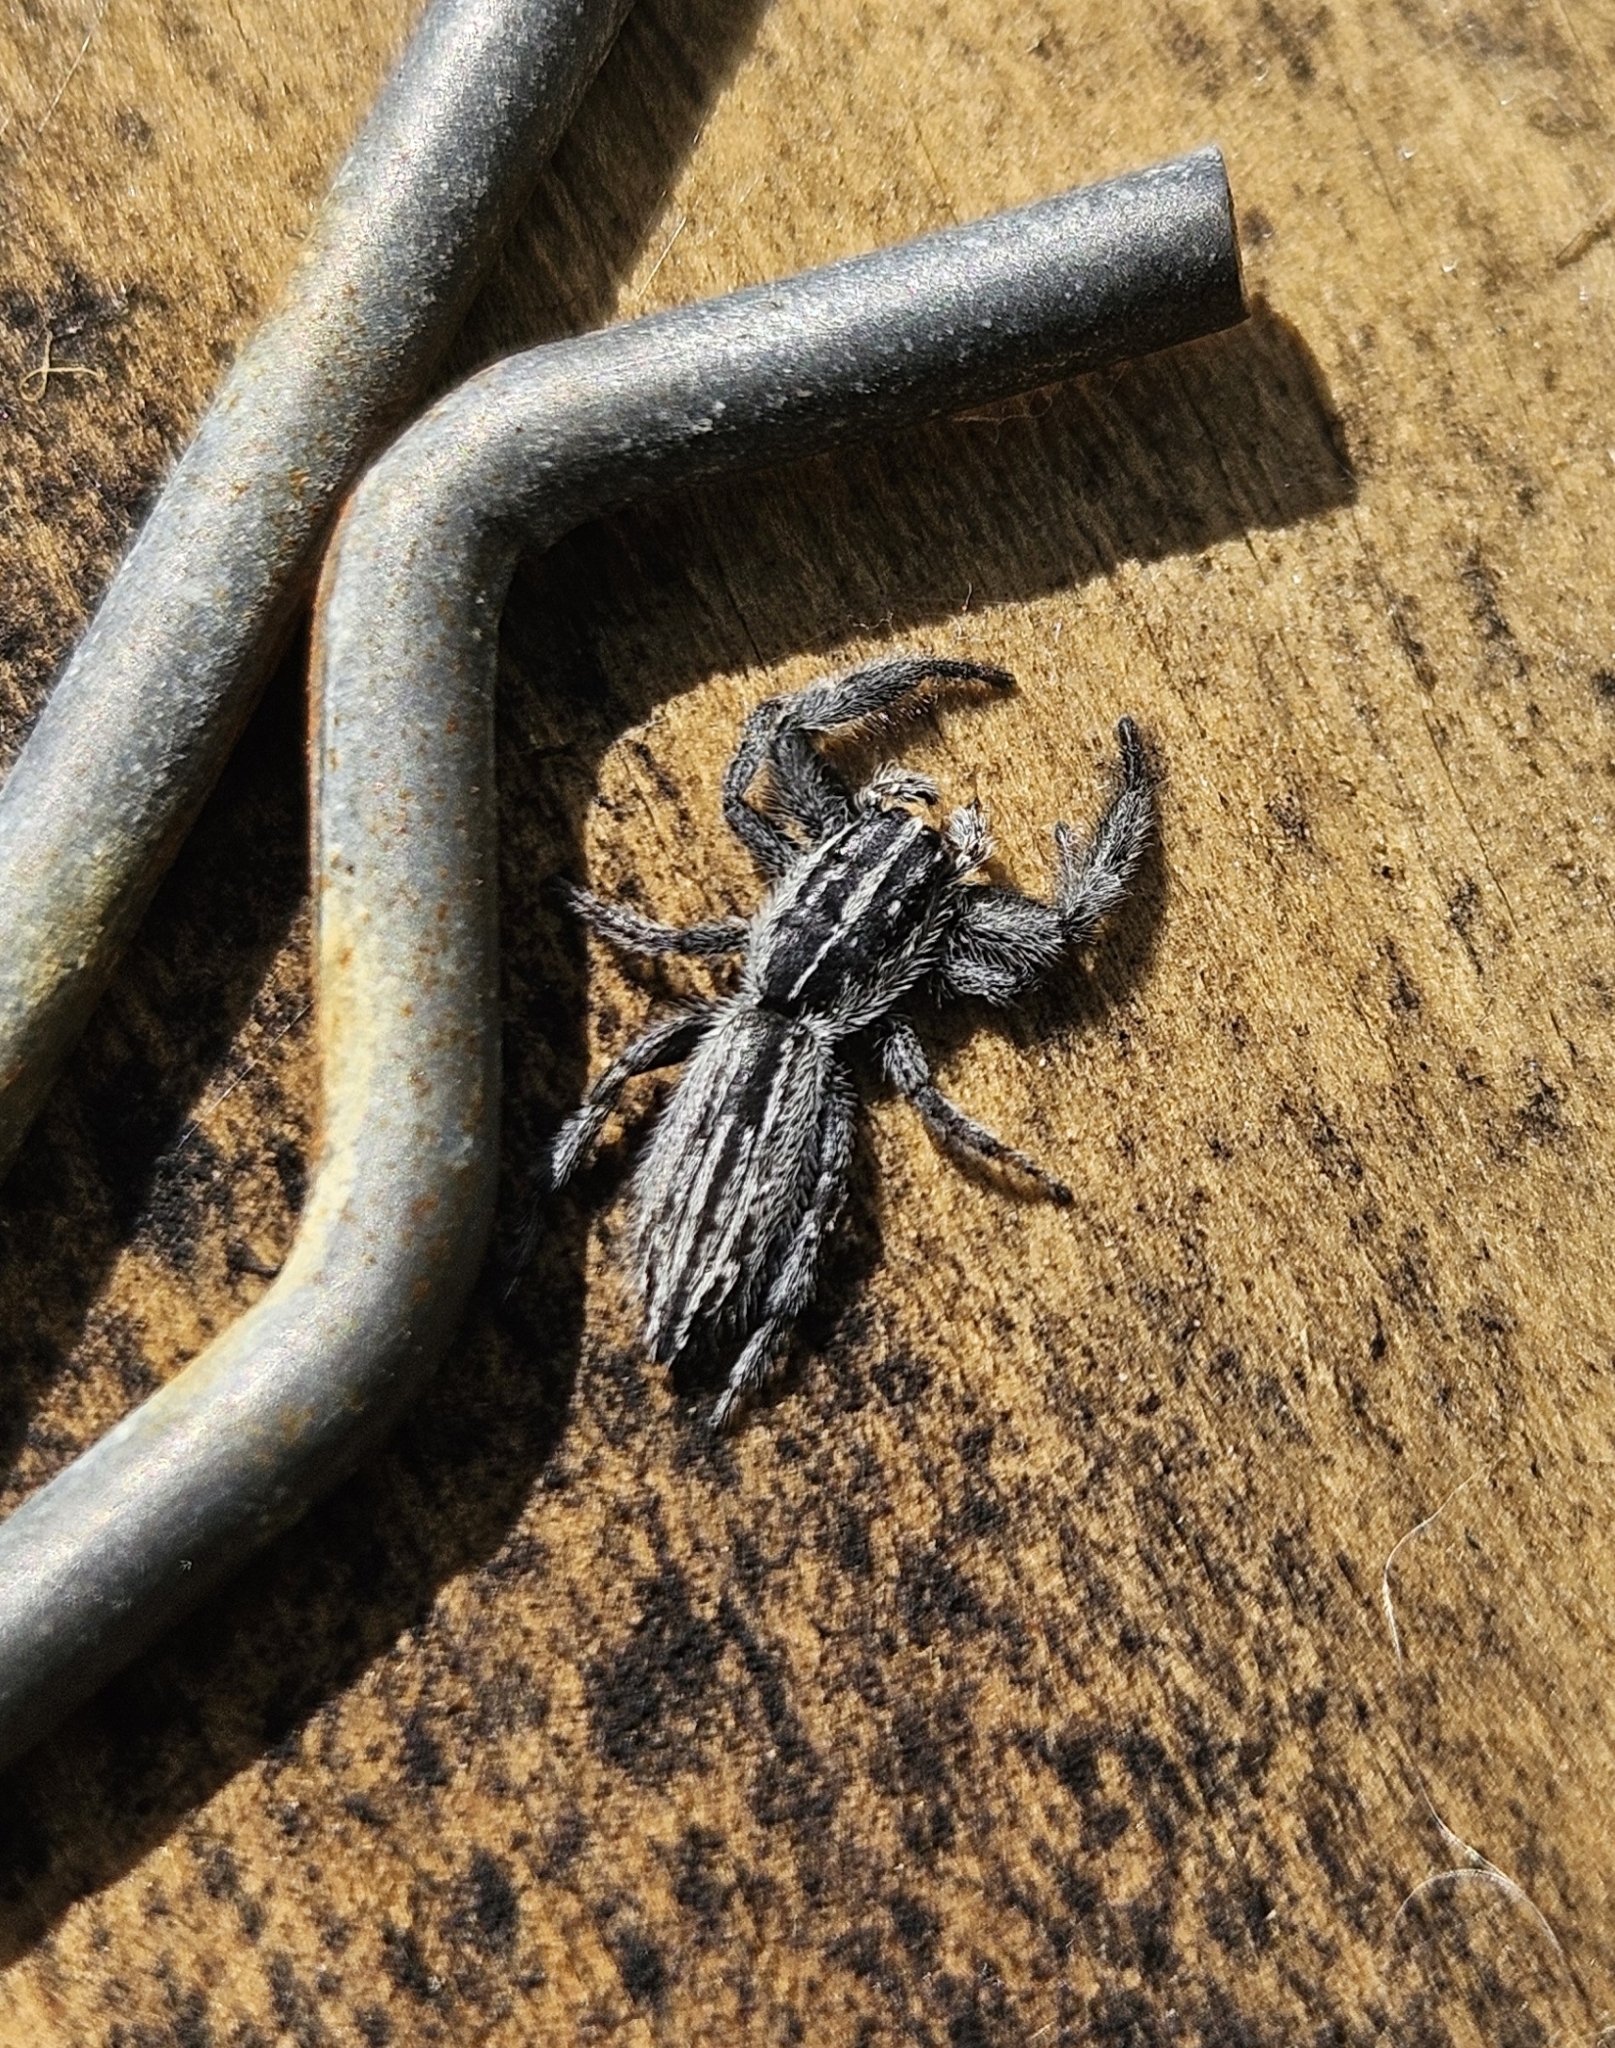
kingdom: Animalia
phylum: Arthropoda
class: Arachnida
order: Araneae
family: Salticidae
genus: Holoplatys
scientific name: Holoplatys apressus
